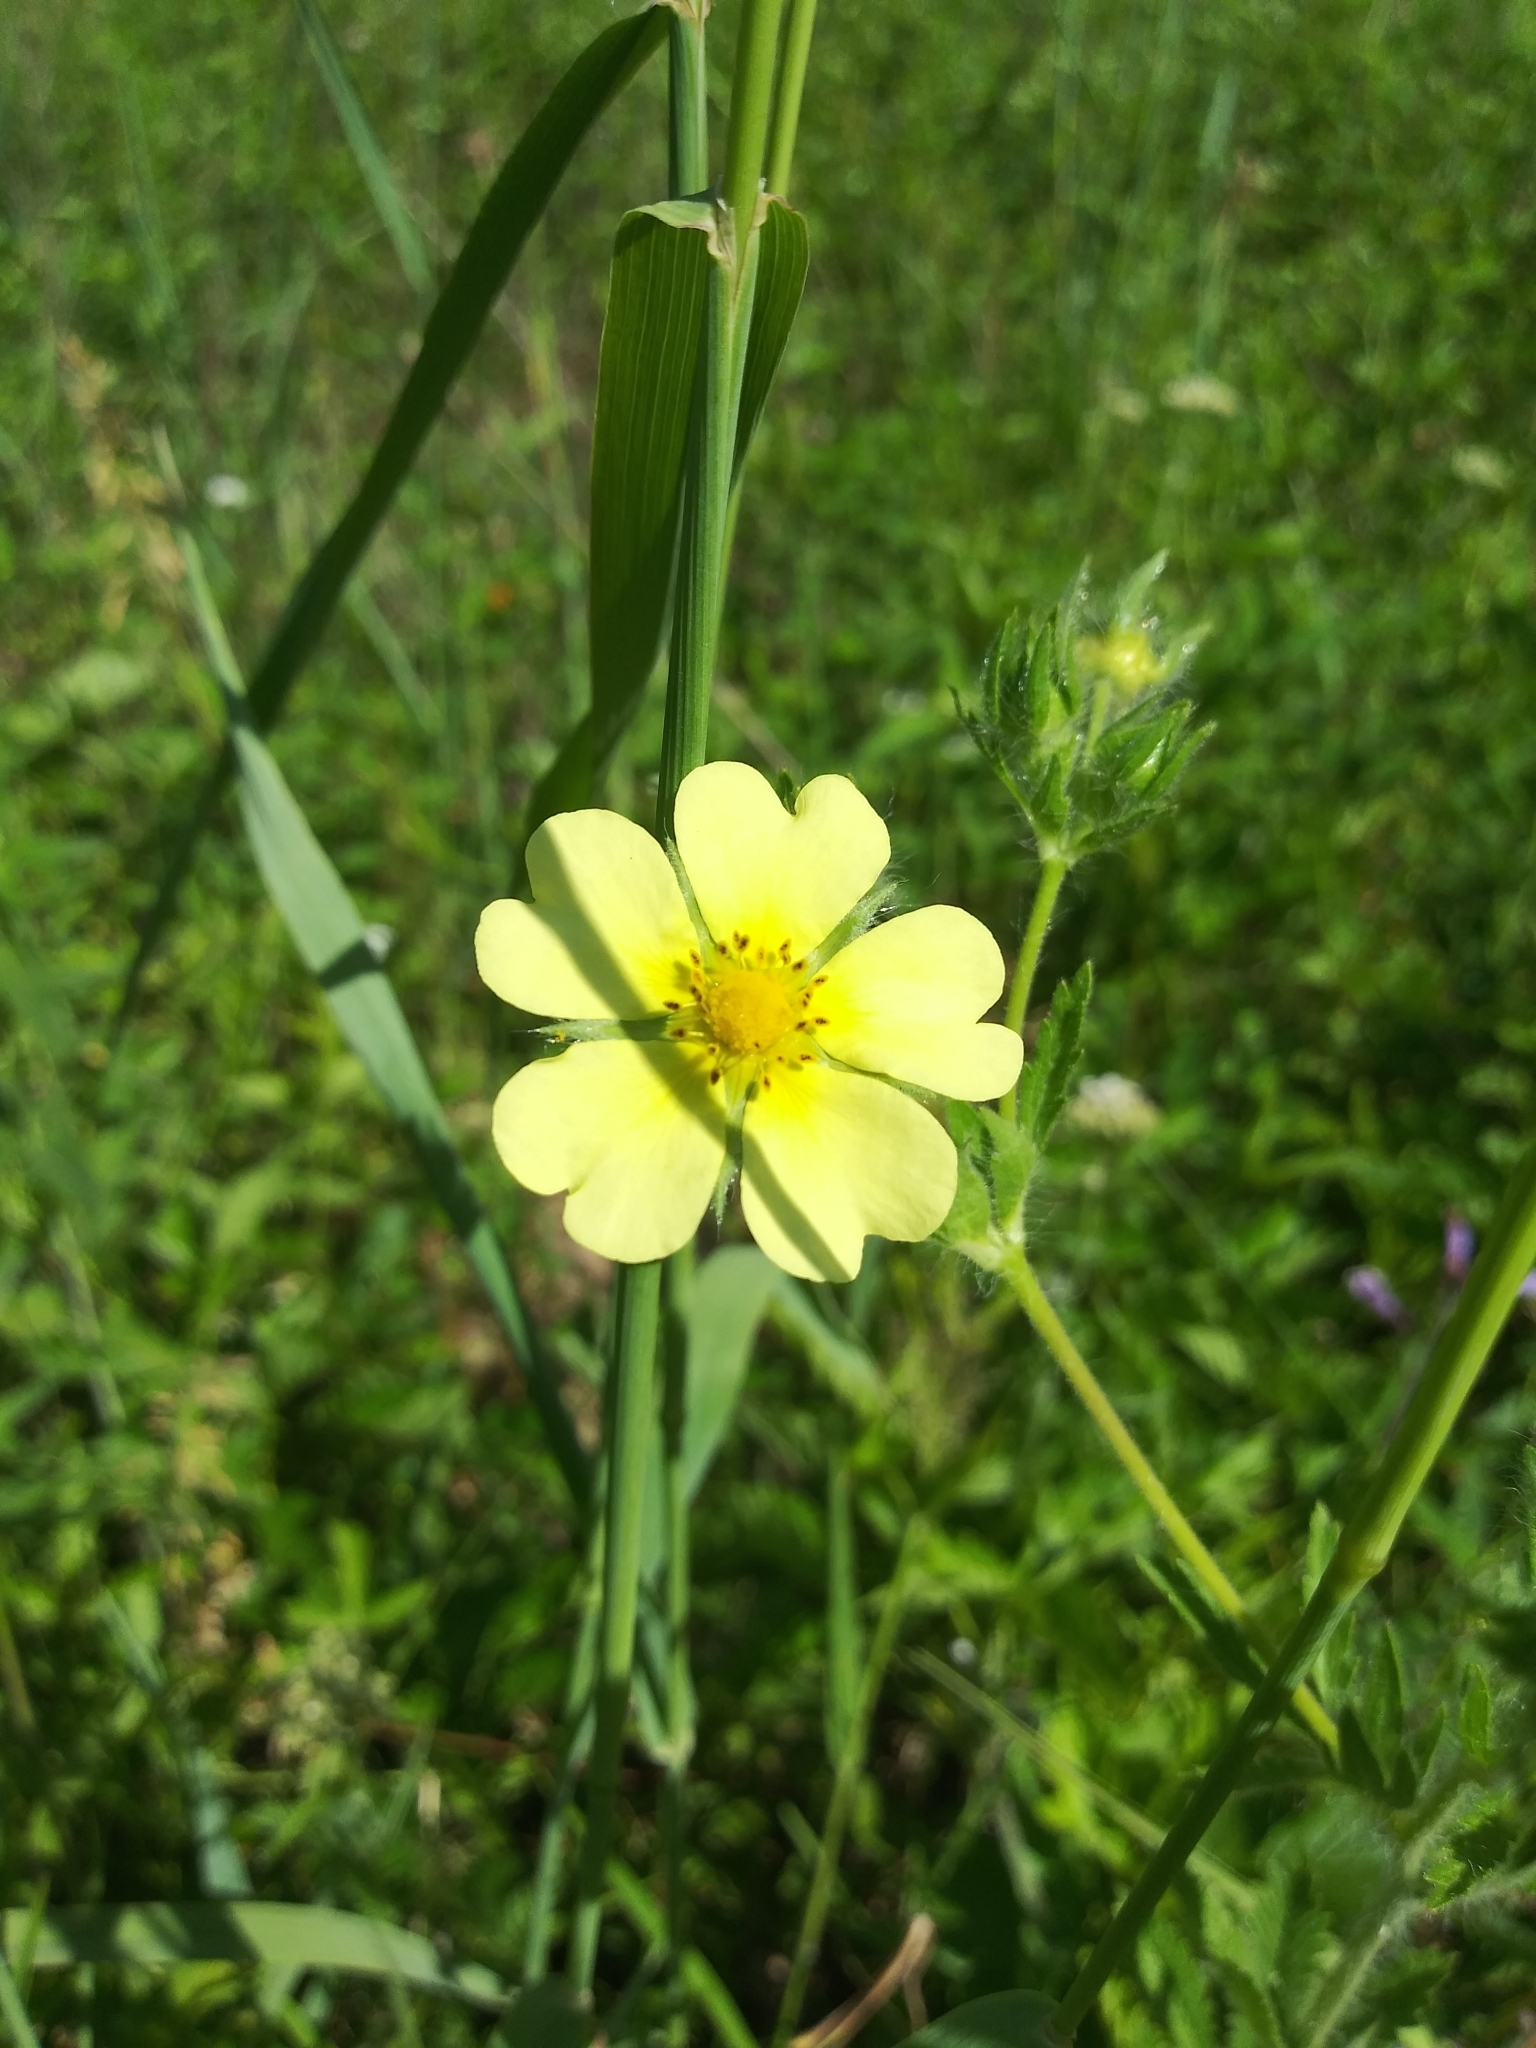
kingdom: Plantae
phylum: Tracheophyta
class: Magnoliopsida
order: Rosales
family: Rosaceae
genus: Potentilla
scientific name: Potentilla recta
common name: Sulphur cinquefoil
